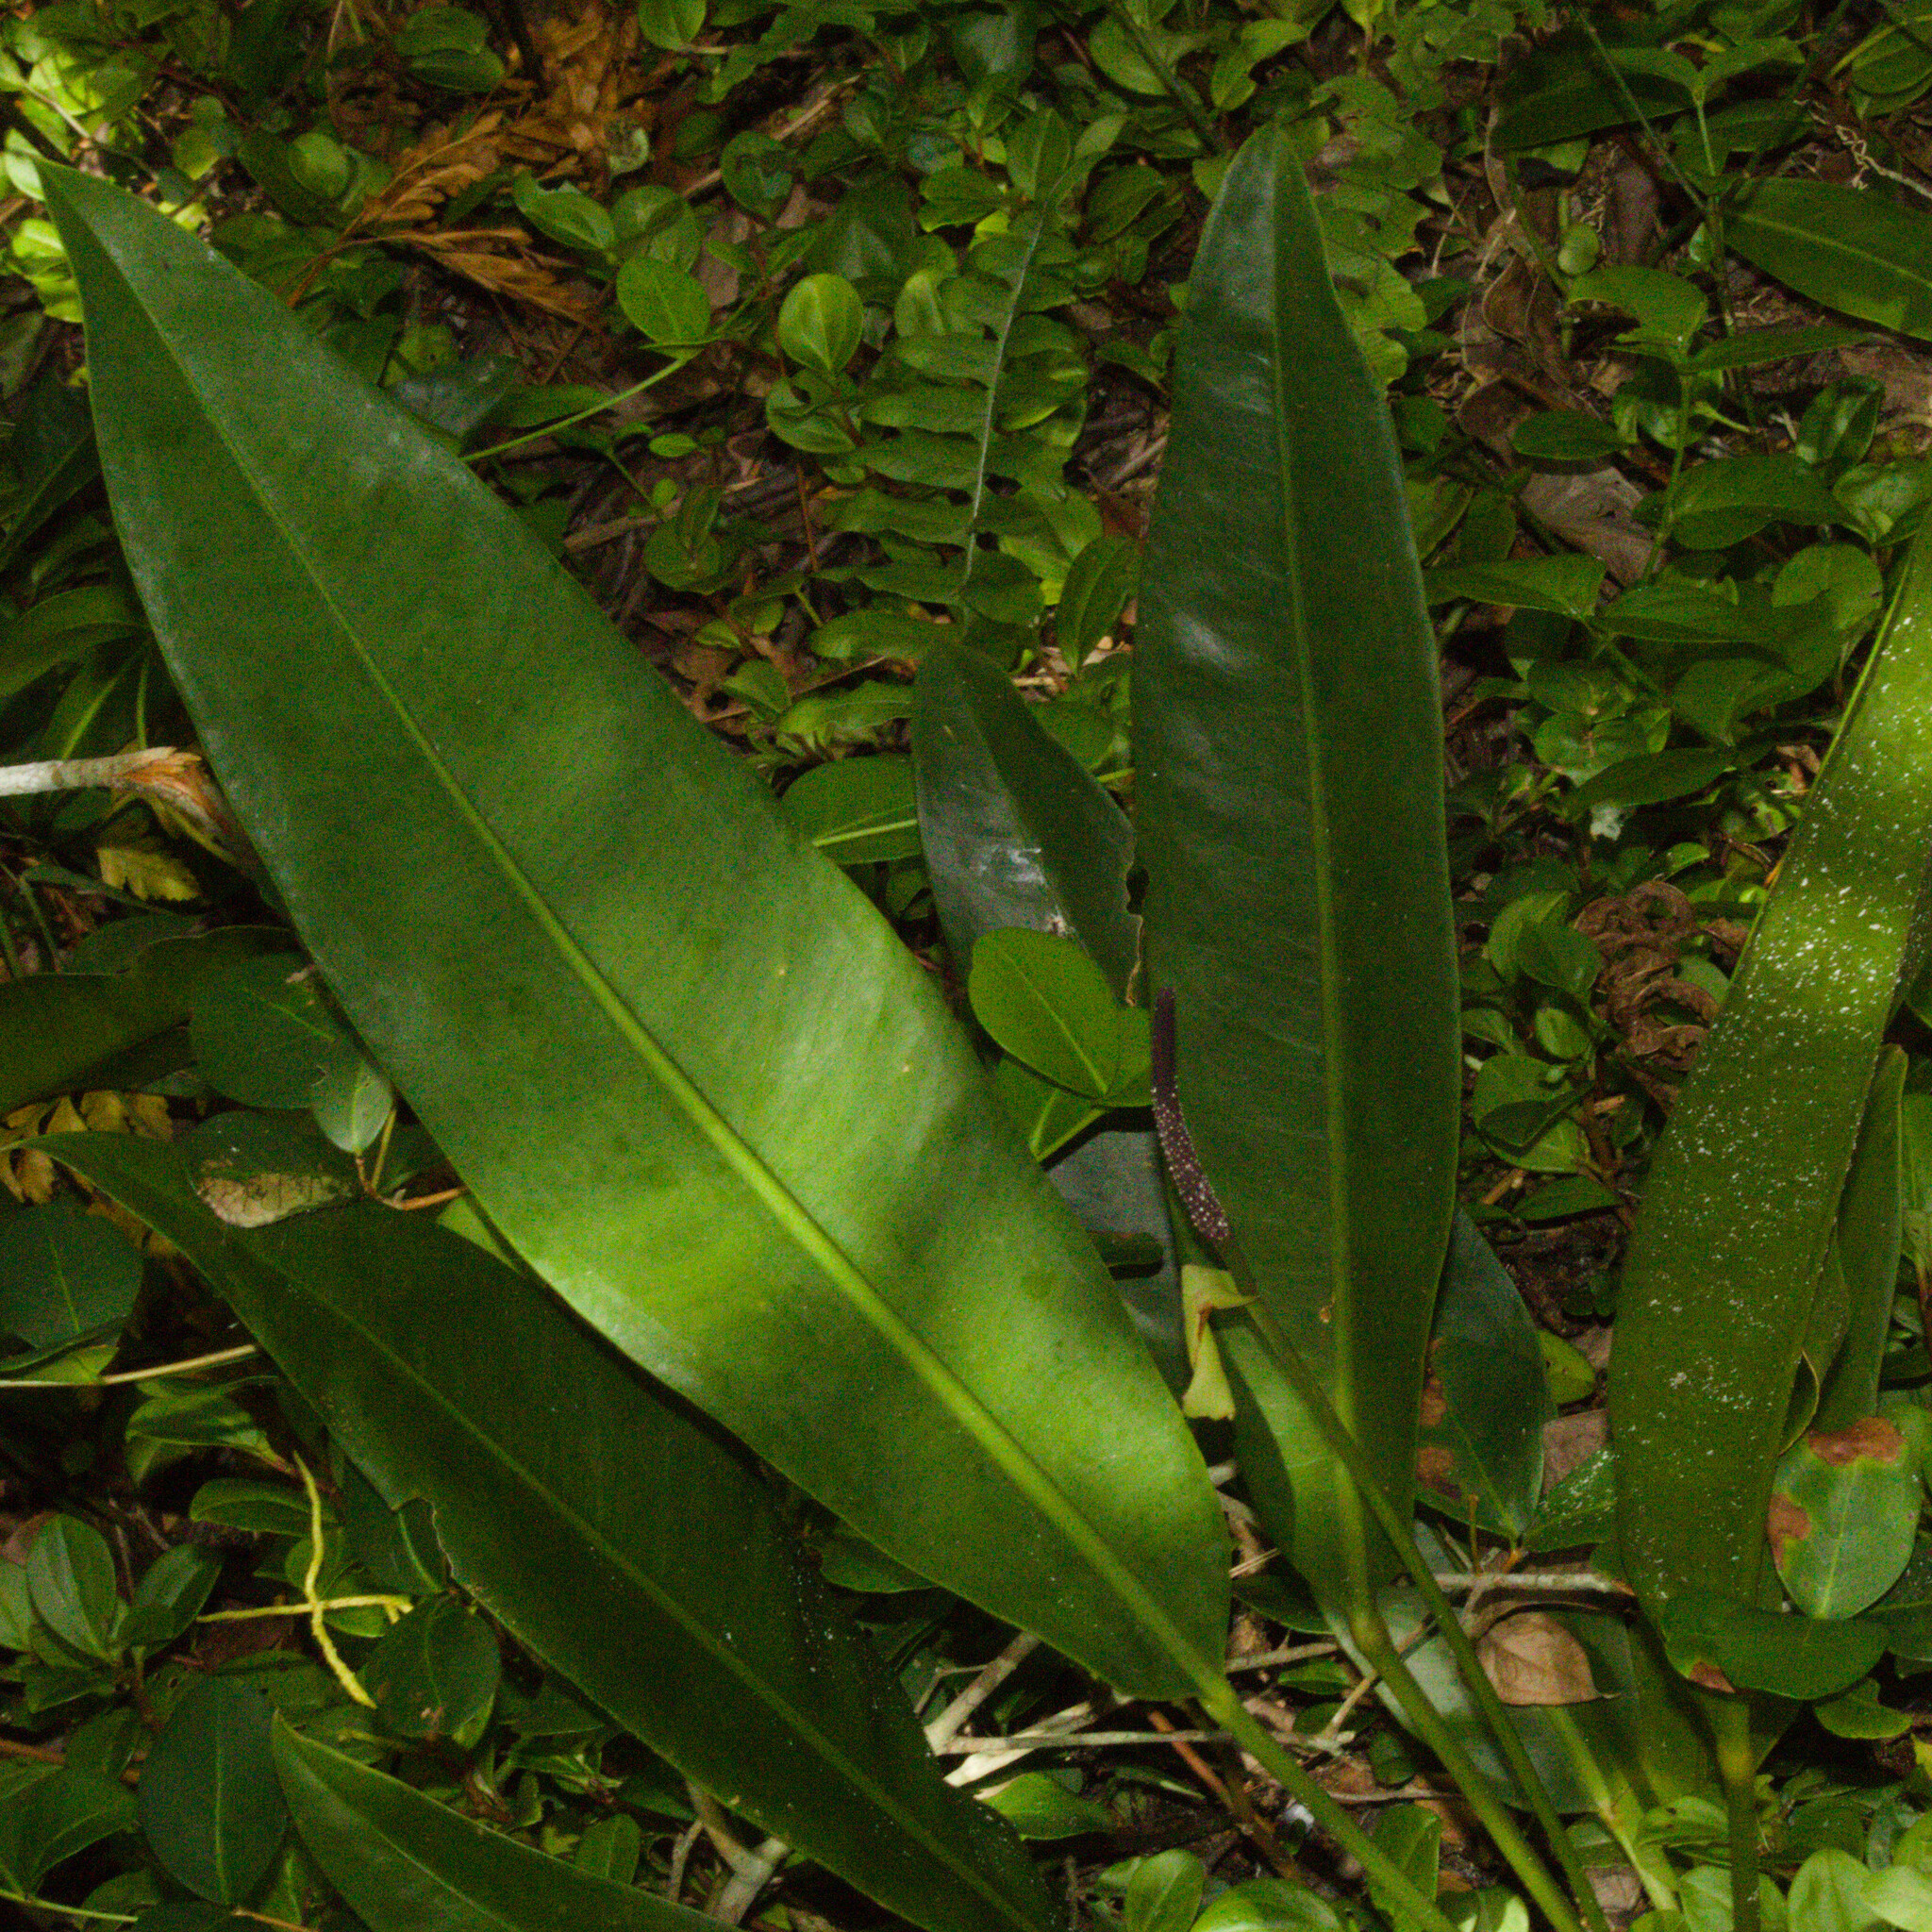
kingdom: Plantae
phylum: Tracheophyta
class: Liliopsida
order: Alismatales
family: Araceae
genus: Anthurium
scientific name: Anthurium gaudichaudianum
